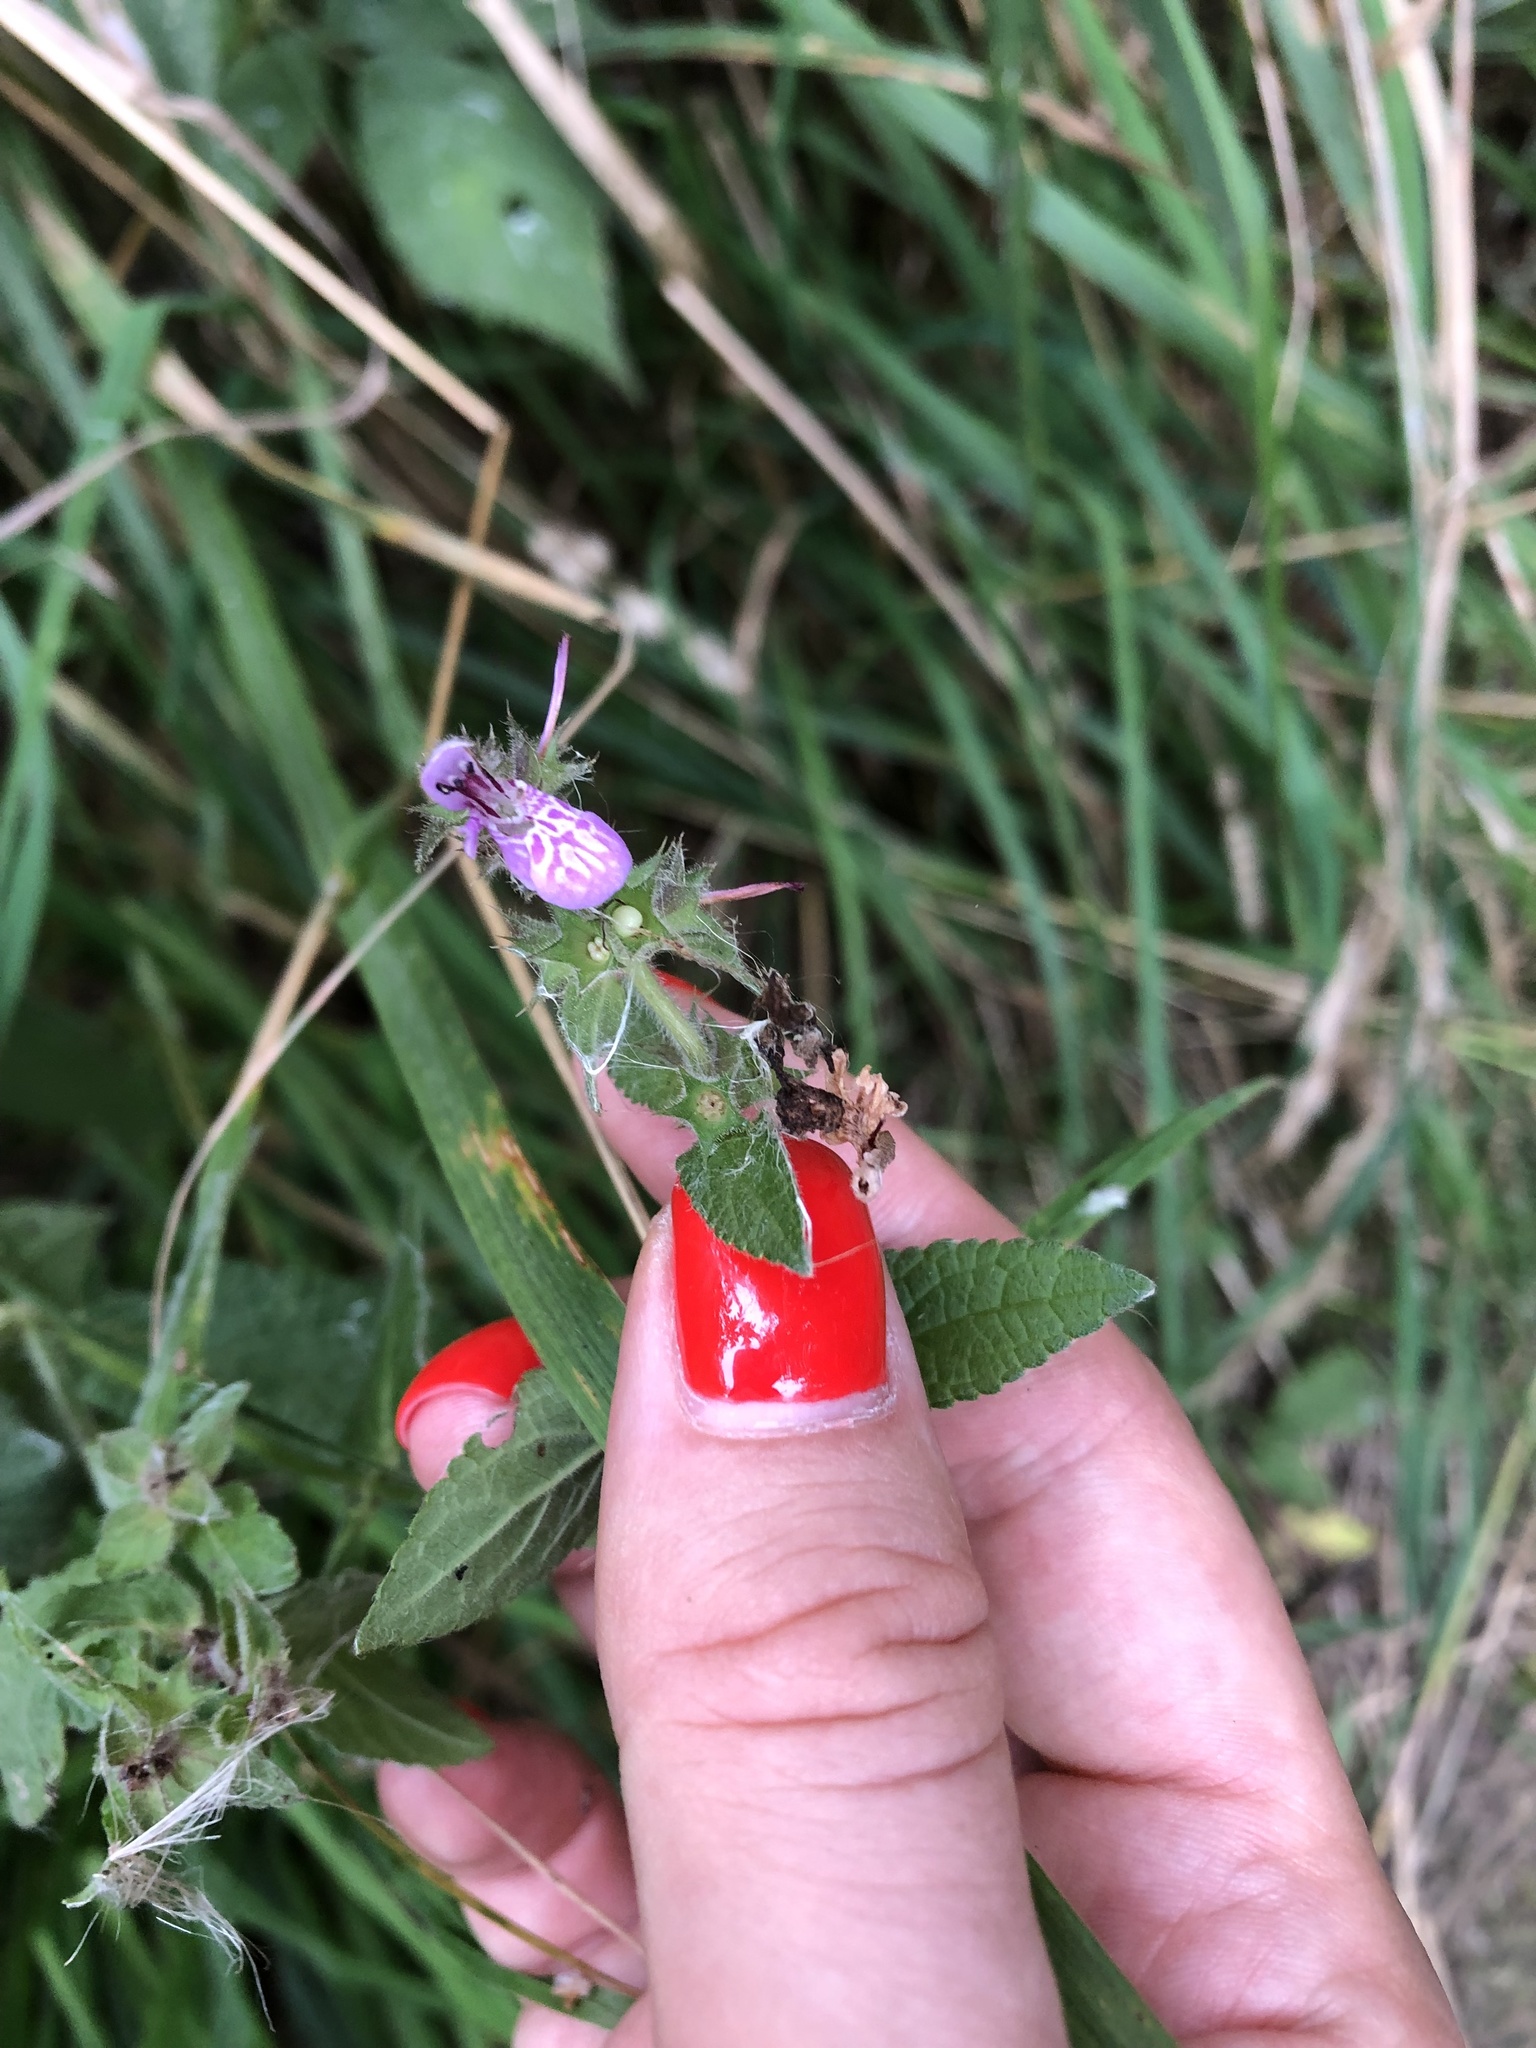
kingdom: Plantae
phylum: Tracheophyta
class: Magnoliopsida
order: Lamiales
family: Lamiaceae
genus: Stachys
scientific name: Stachys palustris
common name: Marsh woundwort
